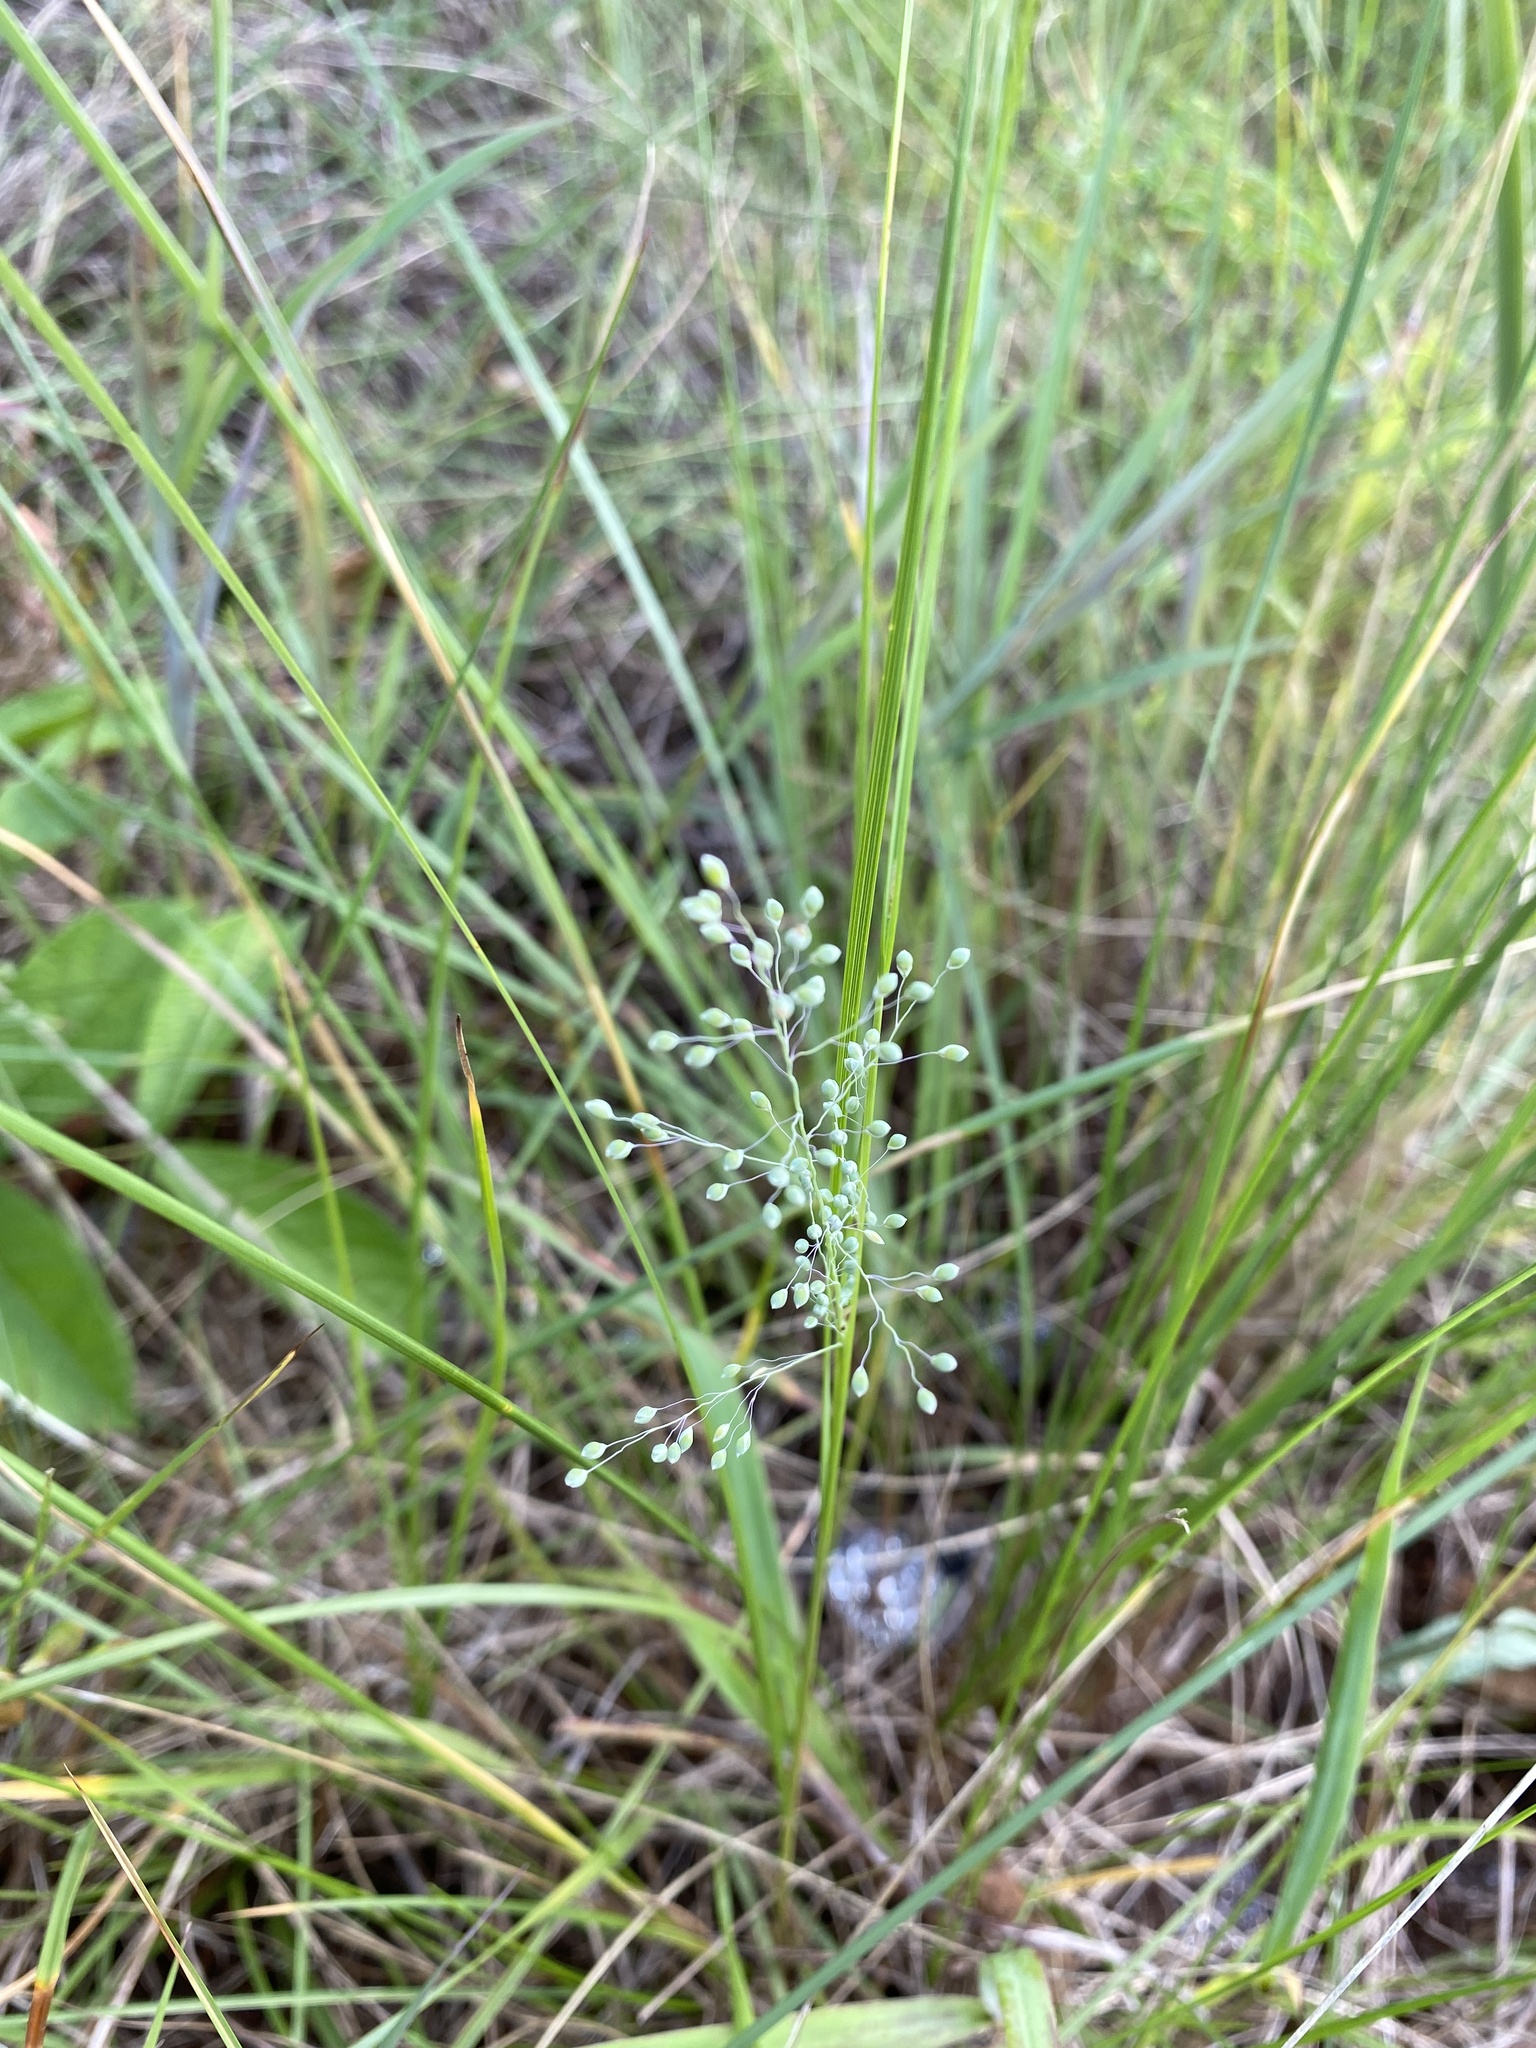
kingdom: Plantae
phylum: Tracheophyta
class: Liliopsida
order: Poales
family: Poaceae
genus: Trichanthecium
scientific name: Trichanthecium natalense
